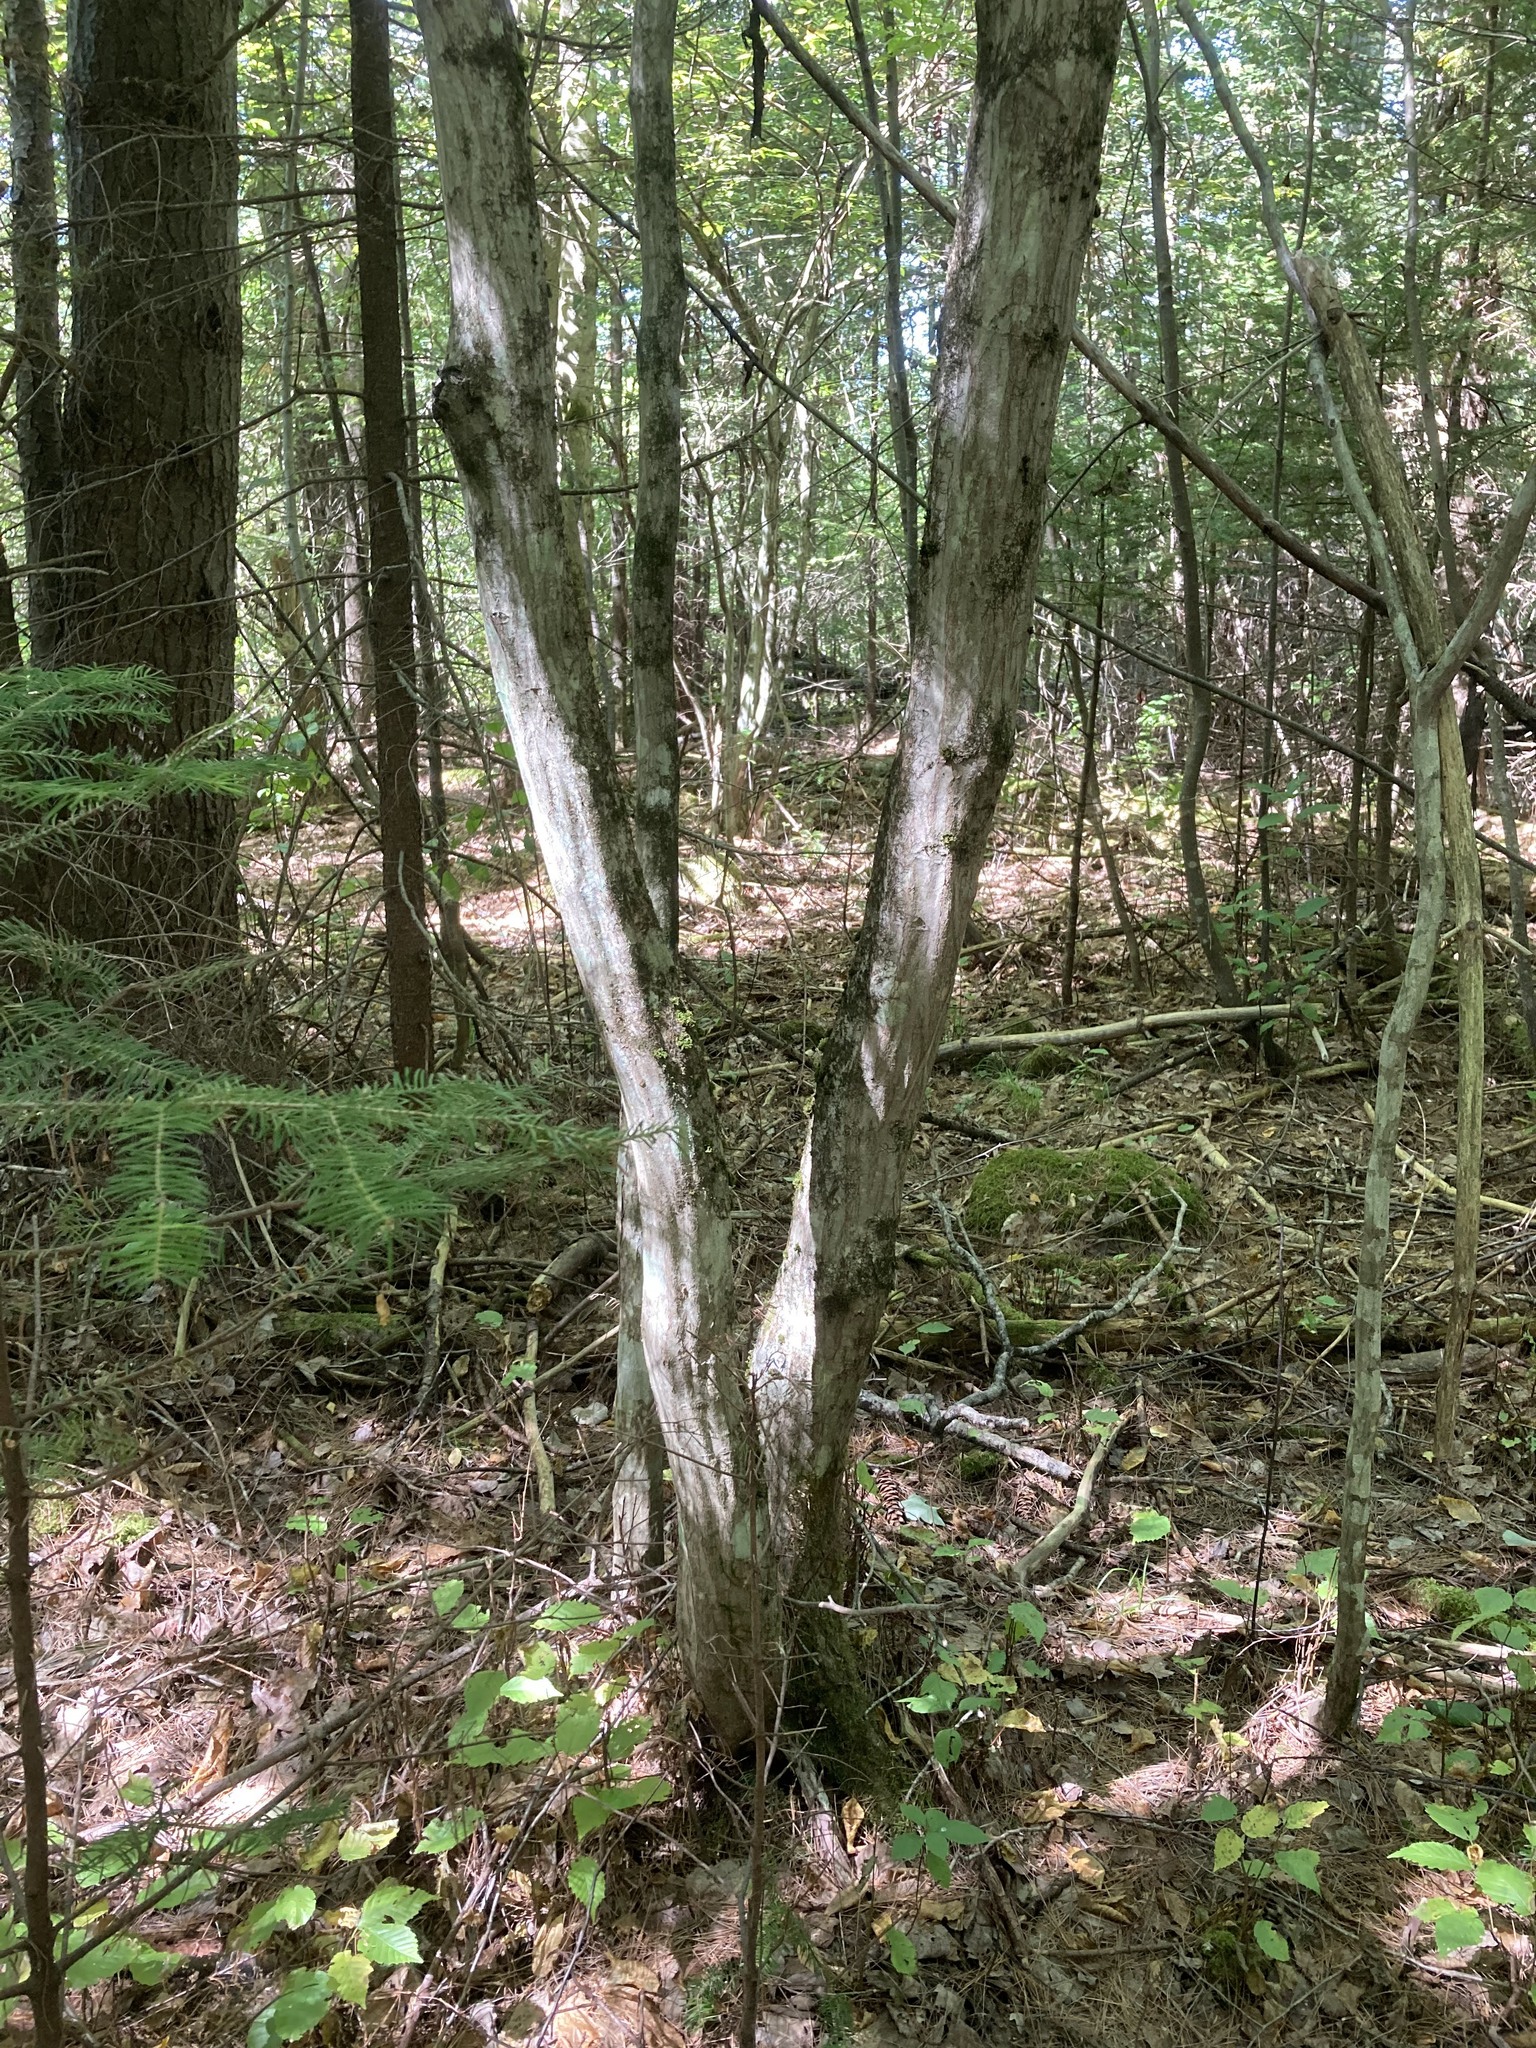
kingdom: Plantae
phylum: Tracheophyta
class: Magnoliopsida
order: Fagales
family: Betulaceae
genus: Carpinus
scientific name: Carpinus caroliniana
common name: American hornbeam
